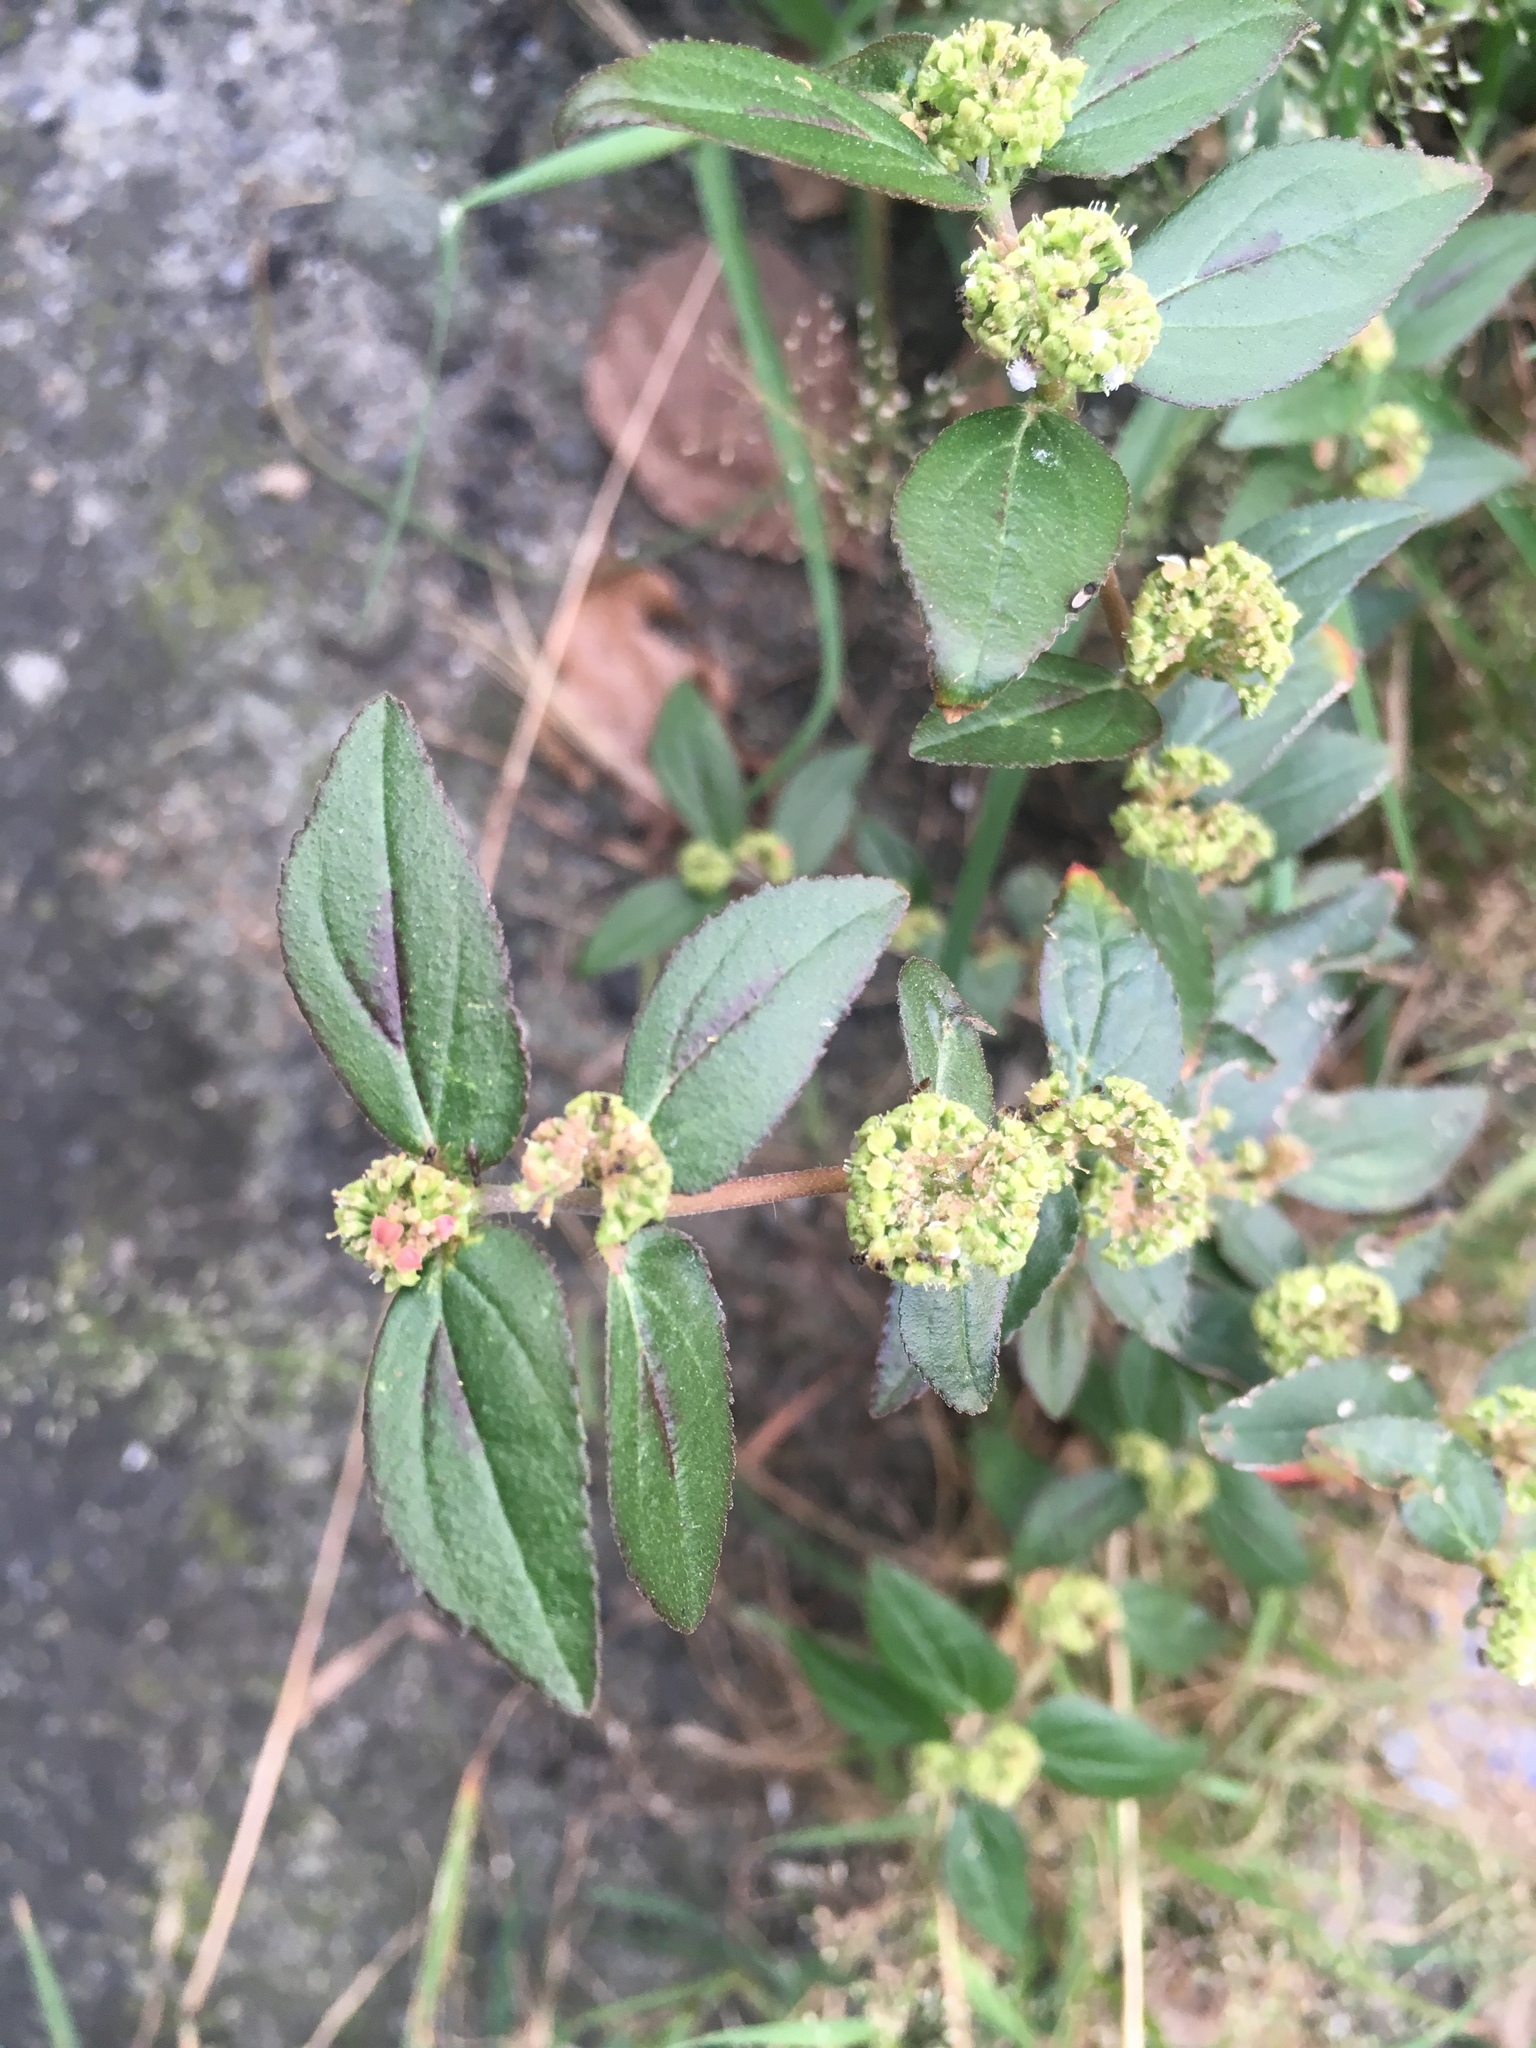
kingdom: Plantae
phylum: Tracheophyta
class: Magnoliopsida
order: Malpighiales
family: Euphorbiaceae
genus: Euphorbia
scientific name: Euphorbia hirta
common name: Pillpod sandmat
